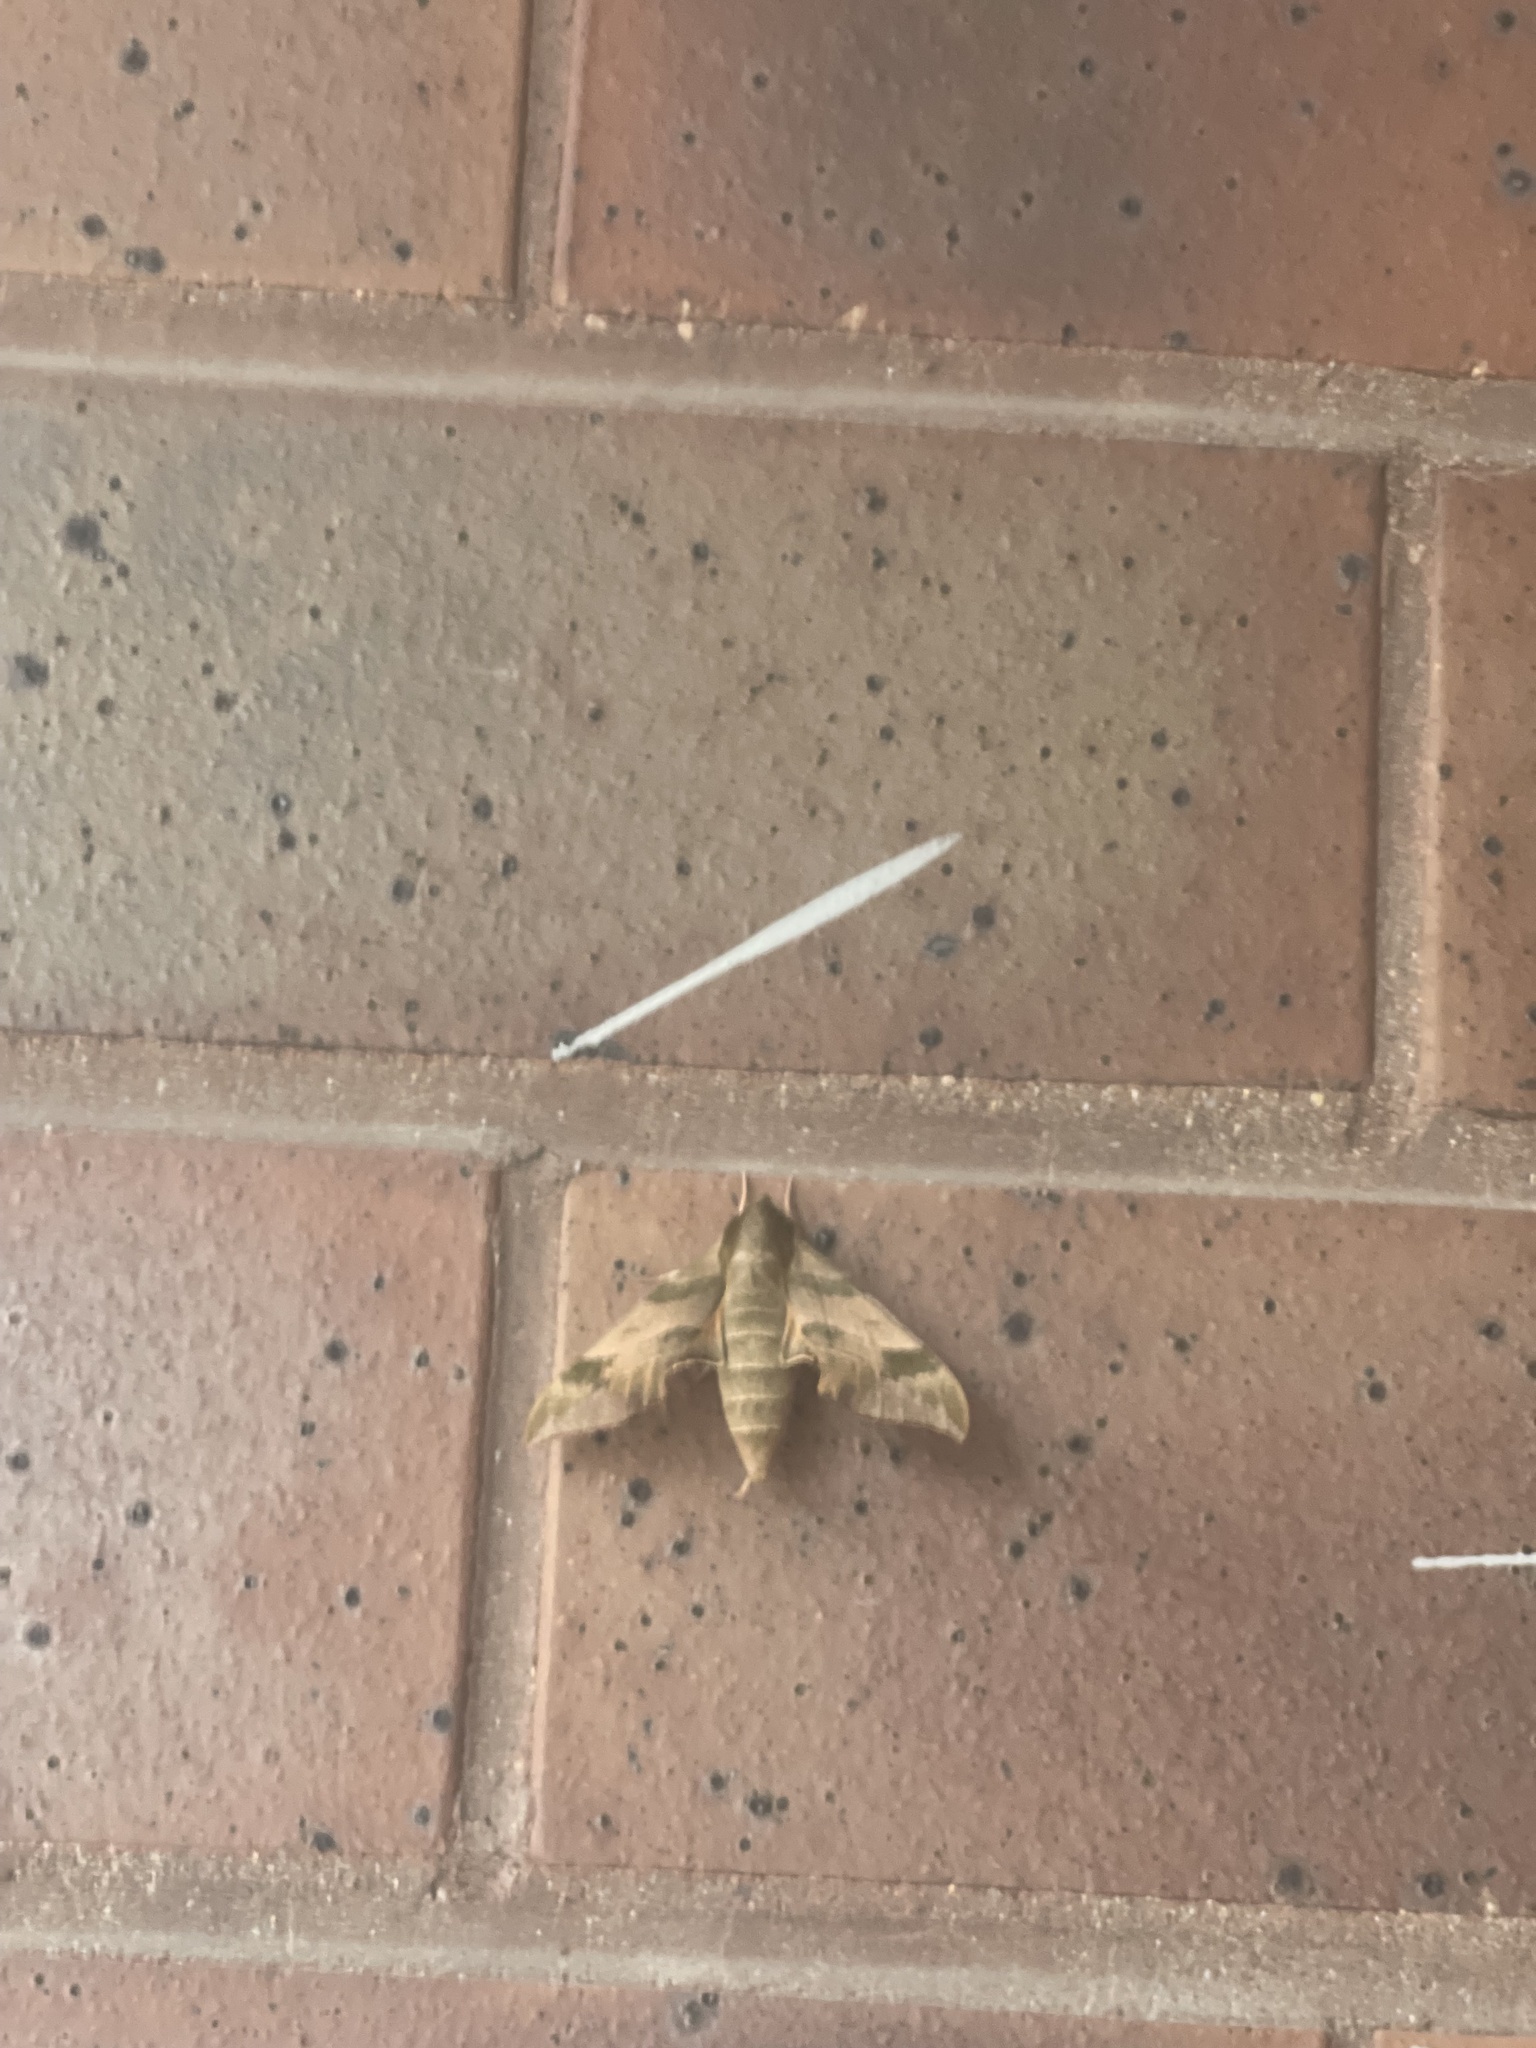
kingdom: Animalia
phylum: Arthropoda
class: Insecta
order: Lepidoptera
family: Sphingidae
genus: Darapsa
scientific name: Darapsa myron
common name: Hog sphinx
